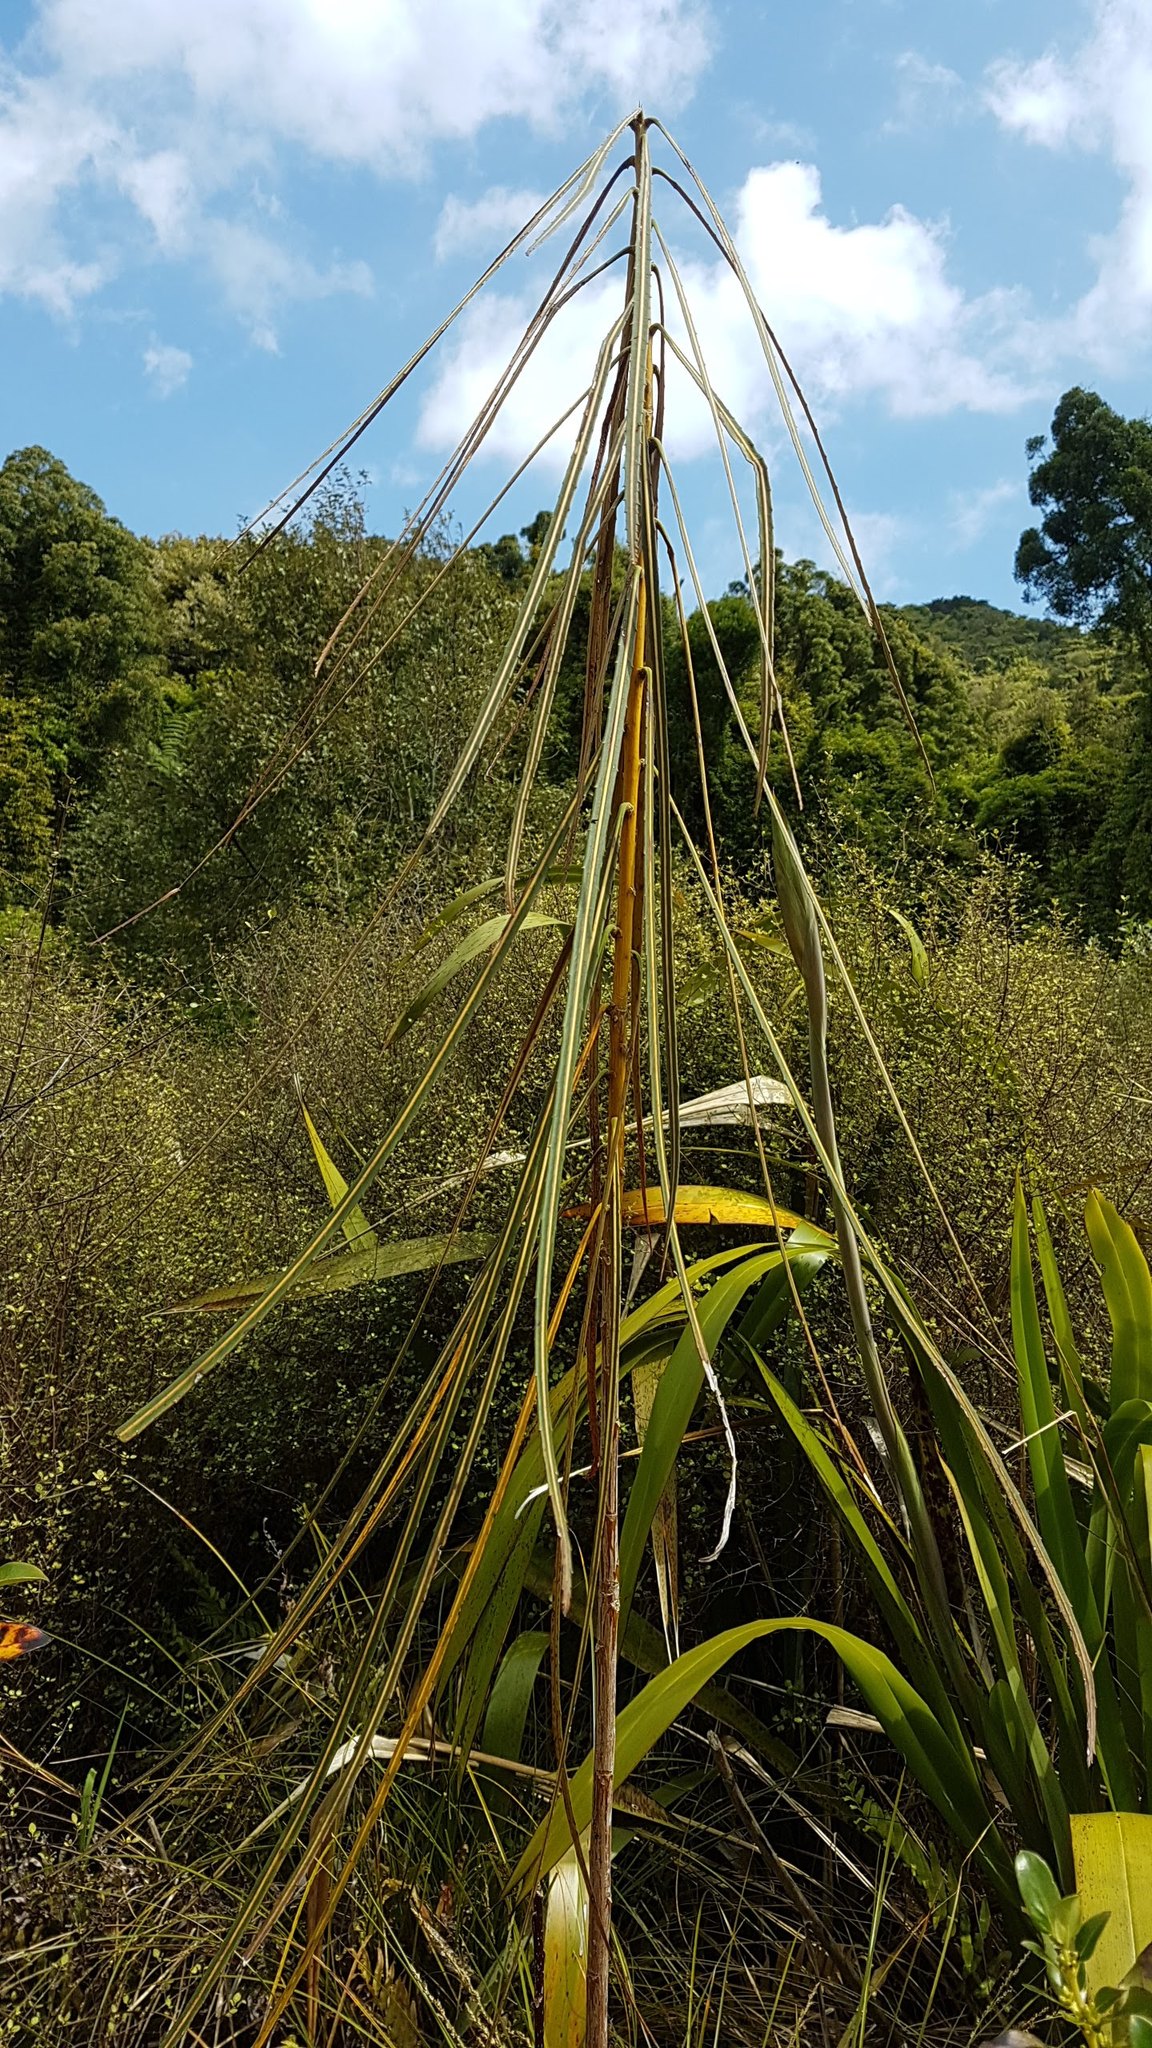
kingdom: Plantae
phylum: Tracheophyta
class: Magnoliopsida
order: Apiales
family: Araliaceae
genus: Pseudopanax
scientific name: Pseudopanax crassifolius
